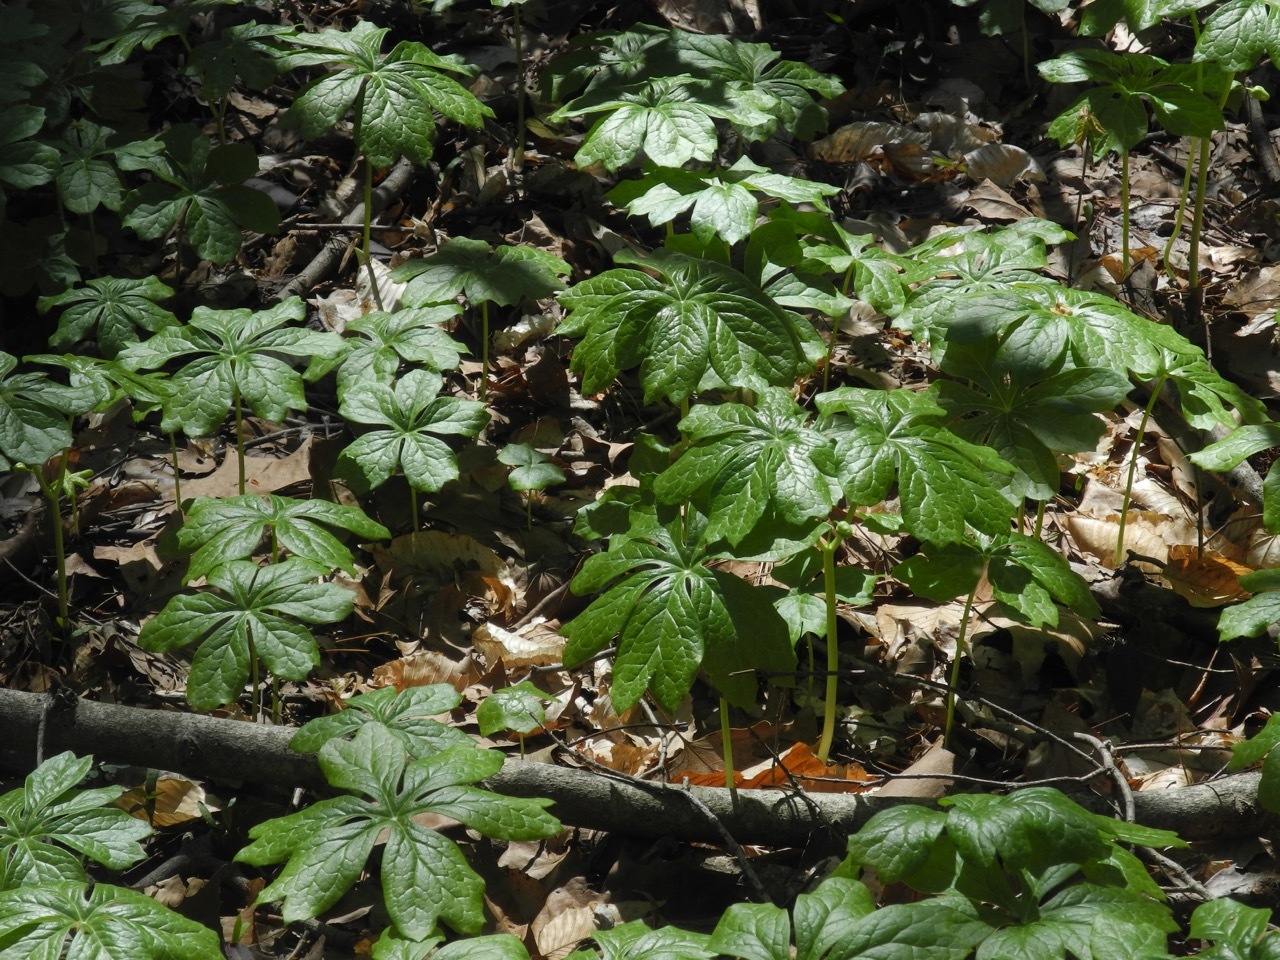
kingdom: Plantae
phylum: Tracheophyta
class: Magnoliopsida
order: Ranunculales
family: Berberidaceae
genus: Podophyllum
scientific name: Podophyllum peltatum
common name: Wild mandrake
